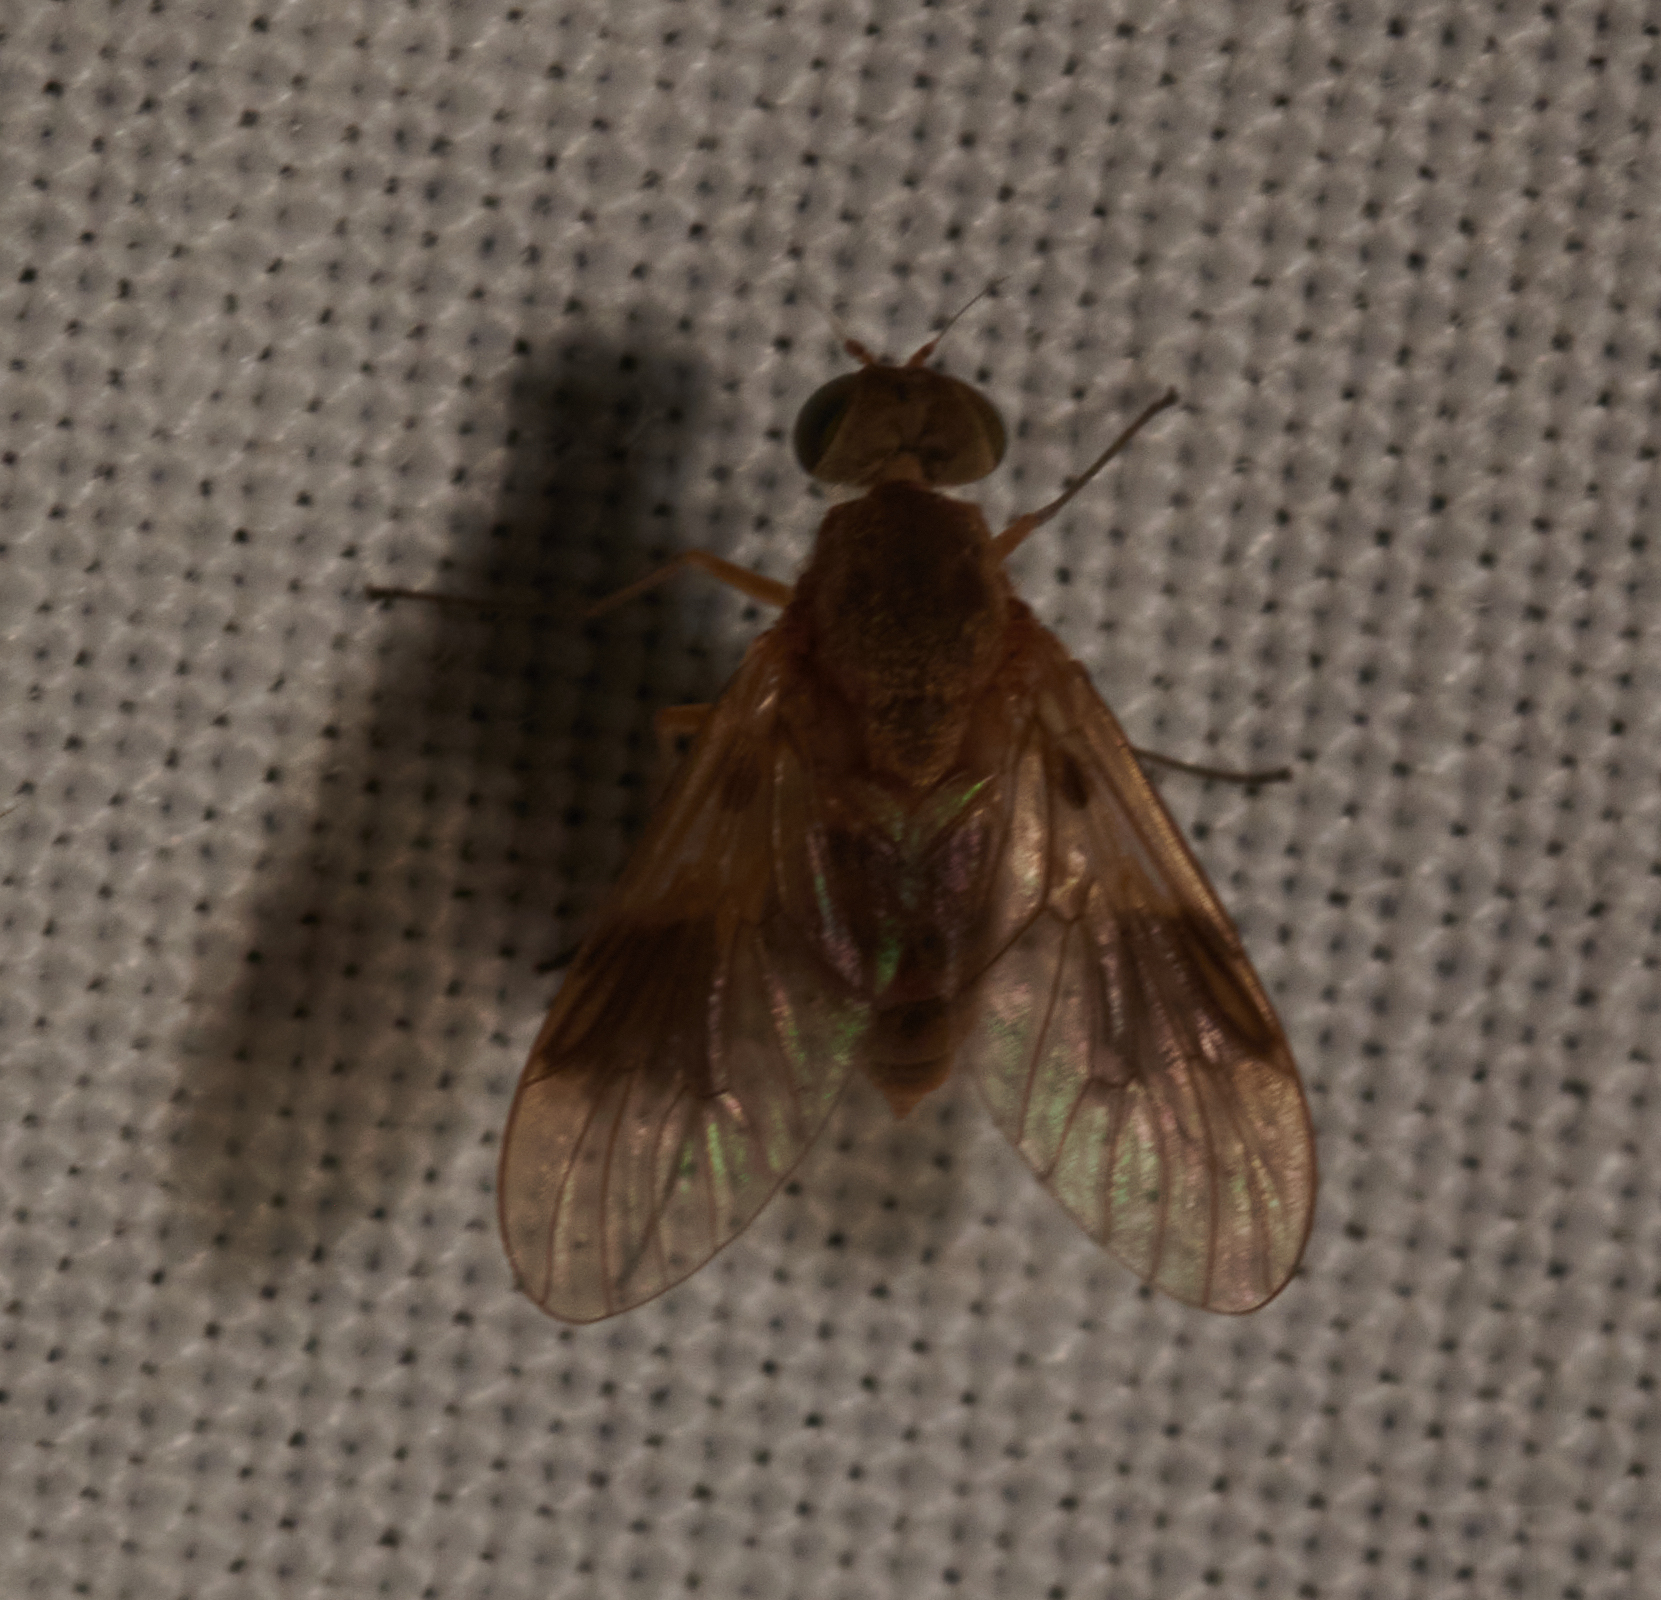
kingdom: Animalia
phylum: Arthropoda
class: Insecta
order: Diptera
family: Rhagionidae
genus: Chrysopilus
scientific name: Chrysopilus quadratus
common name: Quadrate snipe fly
